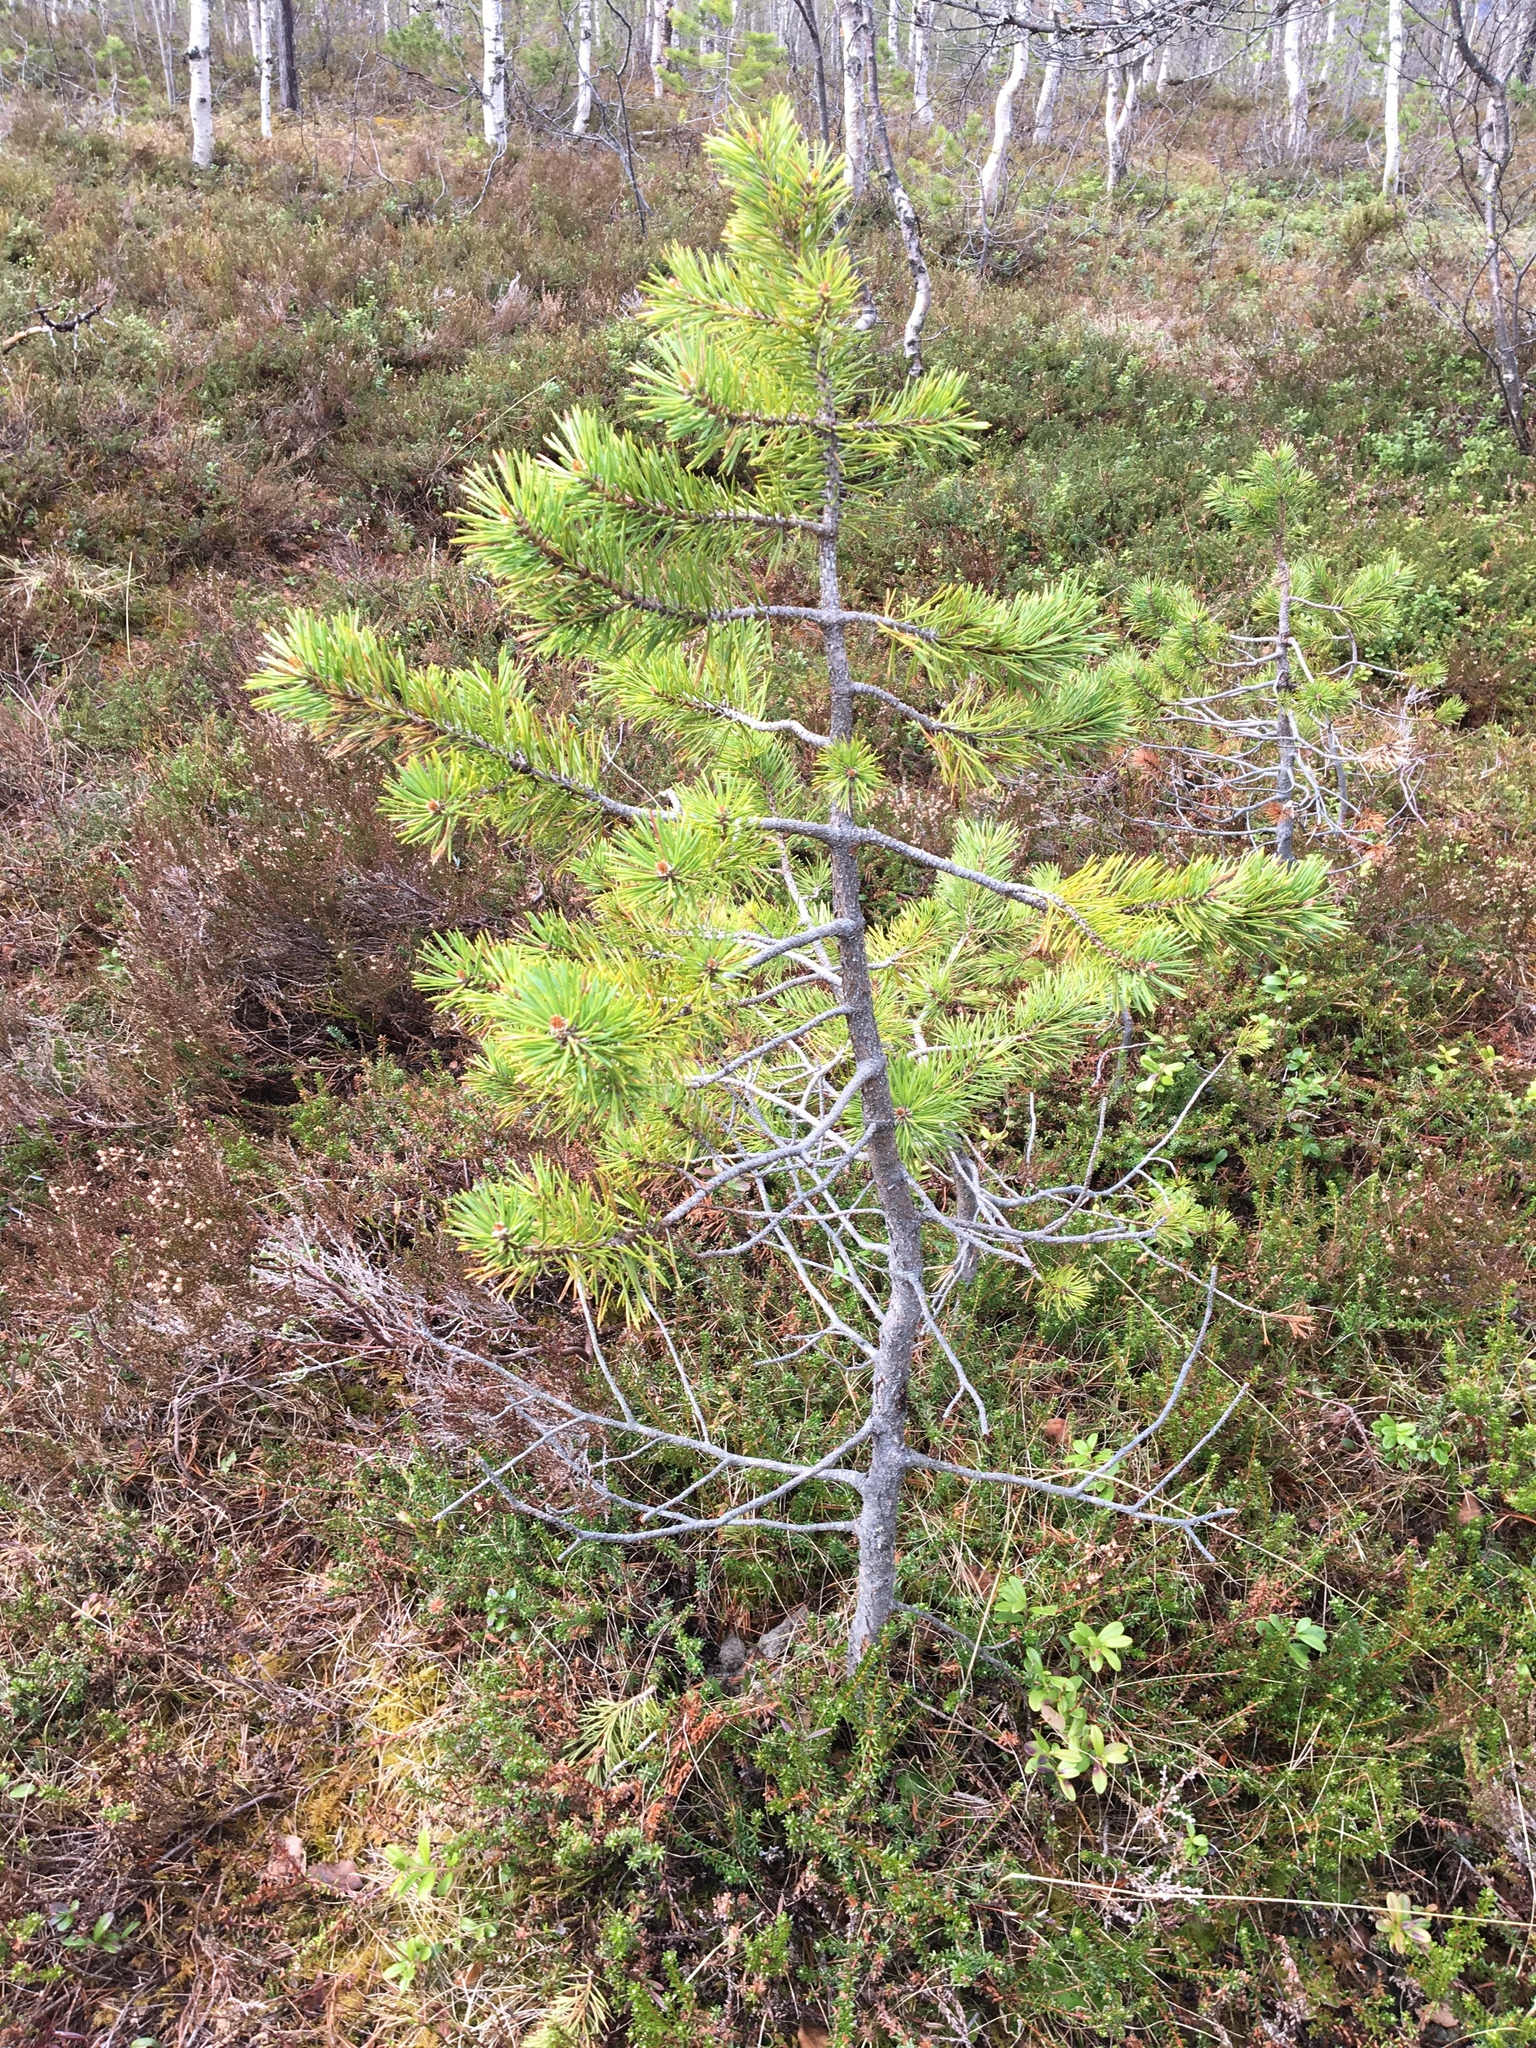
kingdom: Plantae
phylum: Tracheophyta
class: Pinopsida
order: Pinales
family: Pinaceae
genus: Pinus
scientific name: Pinus sylvestris
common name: Scots pine
